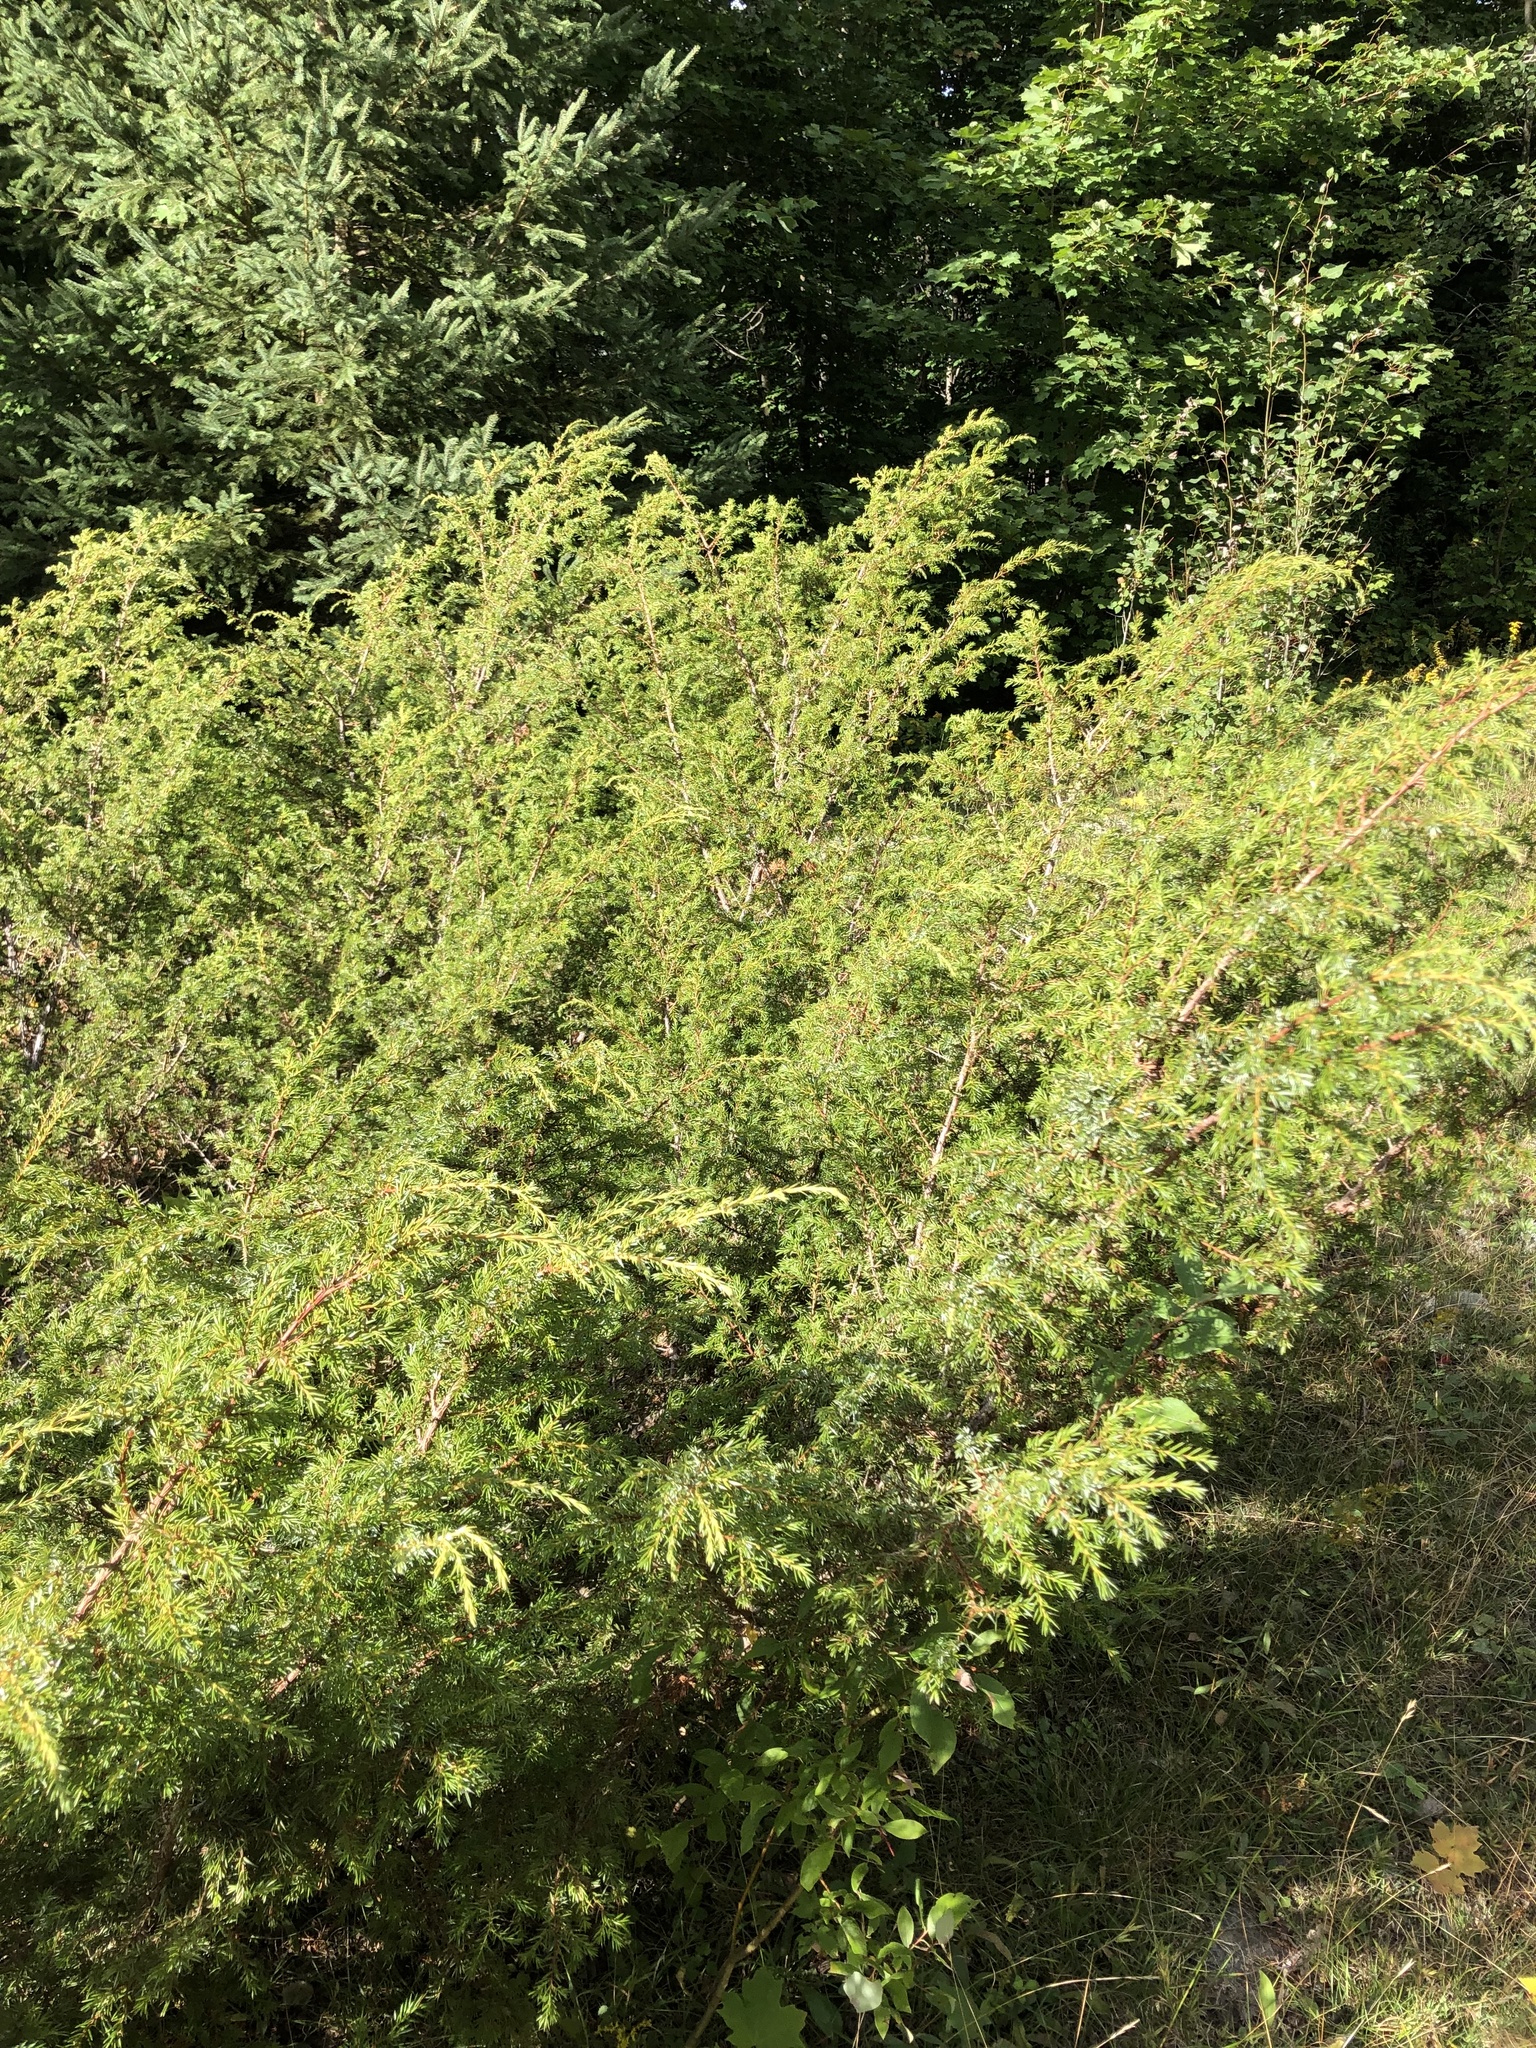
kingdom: Plantae
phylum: Tracheophyta
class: Pinopsida
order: Pinales
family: Cupressaceae
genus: Juniperus
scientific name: Juniperus communis
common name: Common juniper
